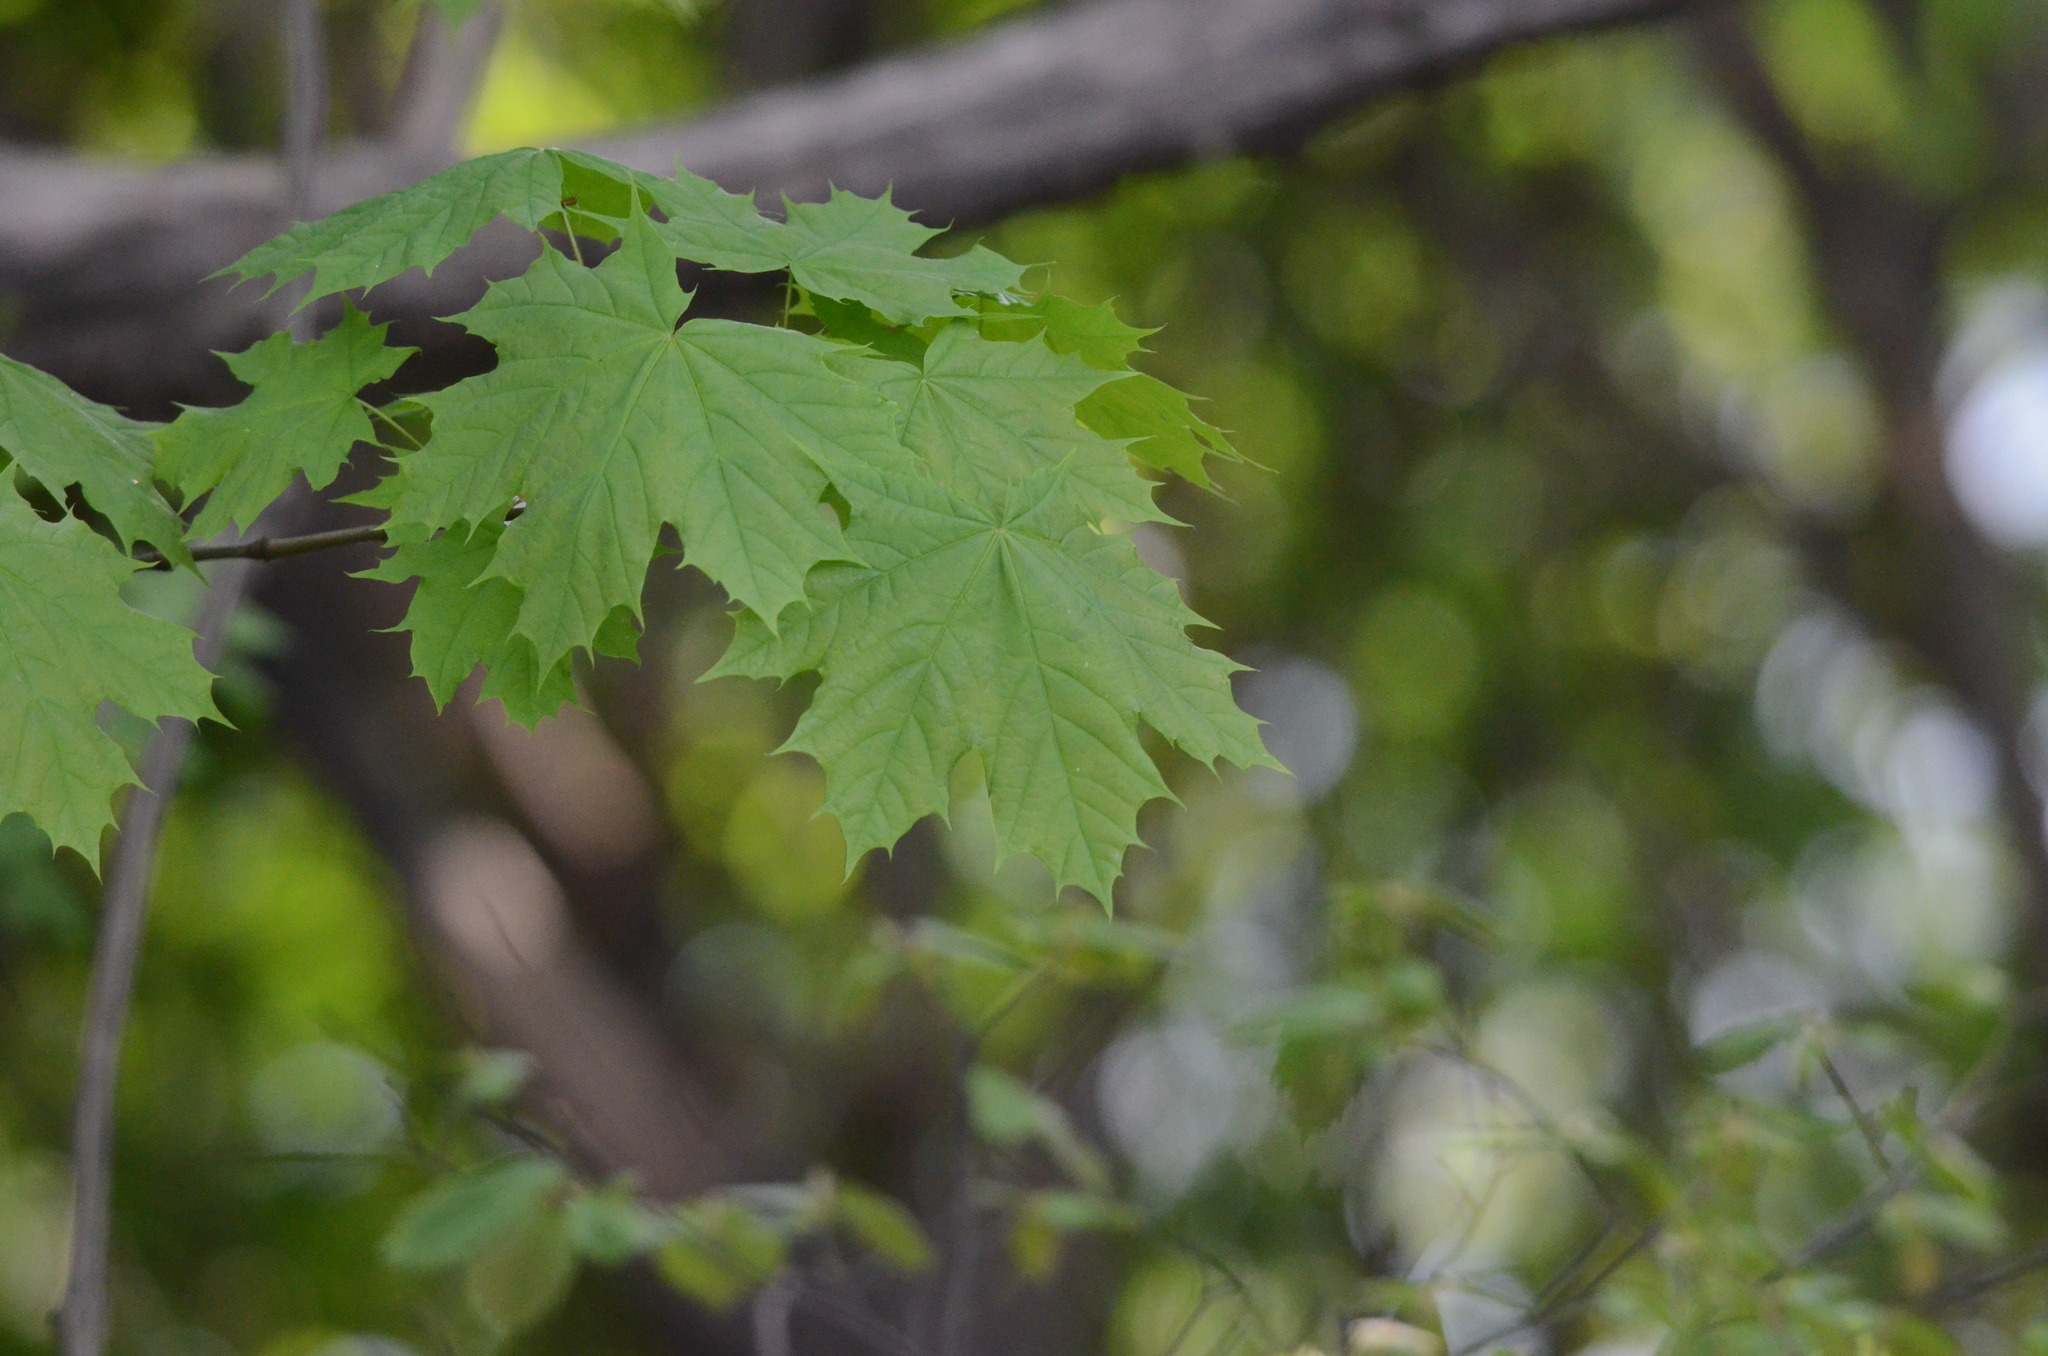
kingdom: Plantae
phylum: Tracheophyta
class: Magnoliopsida
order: Sapindales
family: Sapindaceae
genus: Acer
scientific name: Acer platanoides
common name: Norway maple
